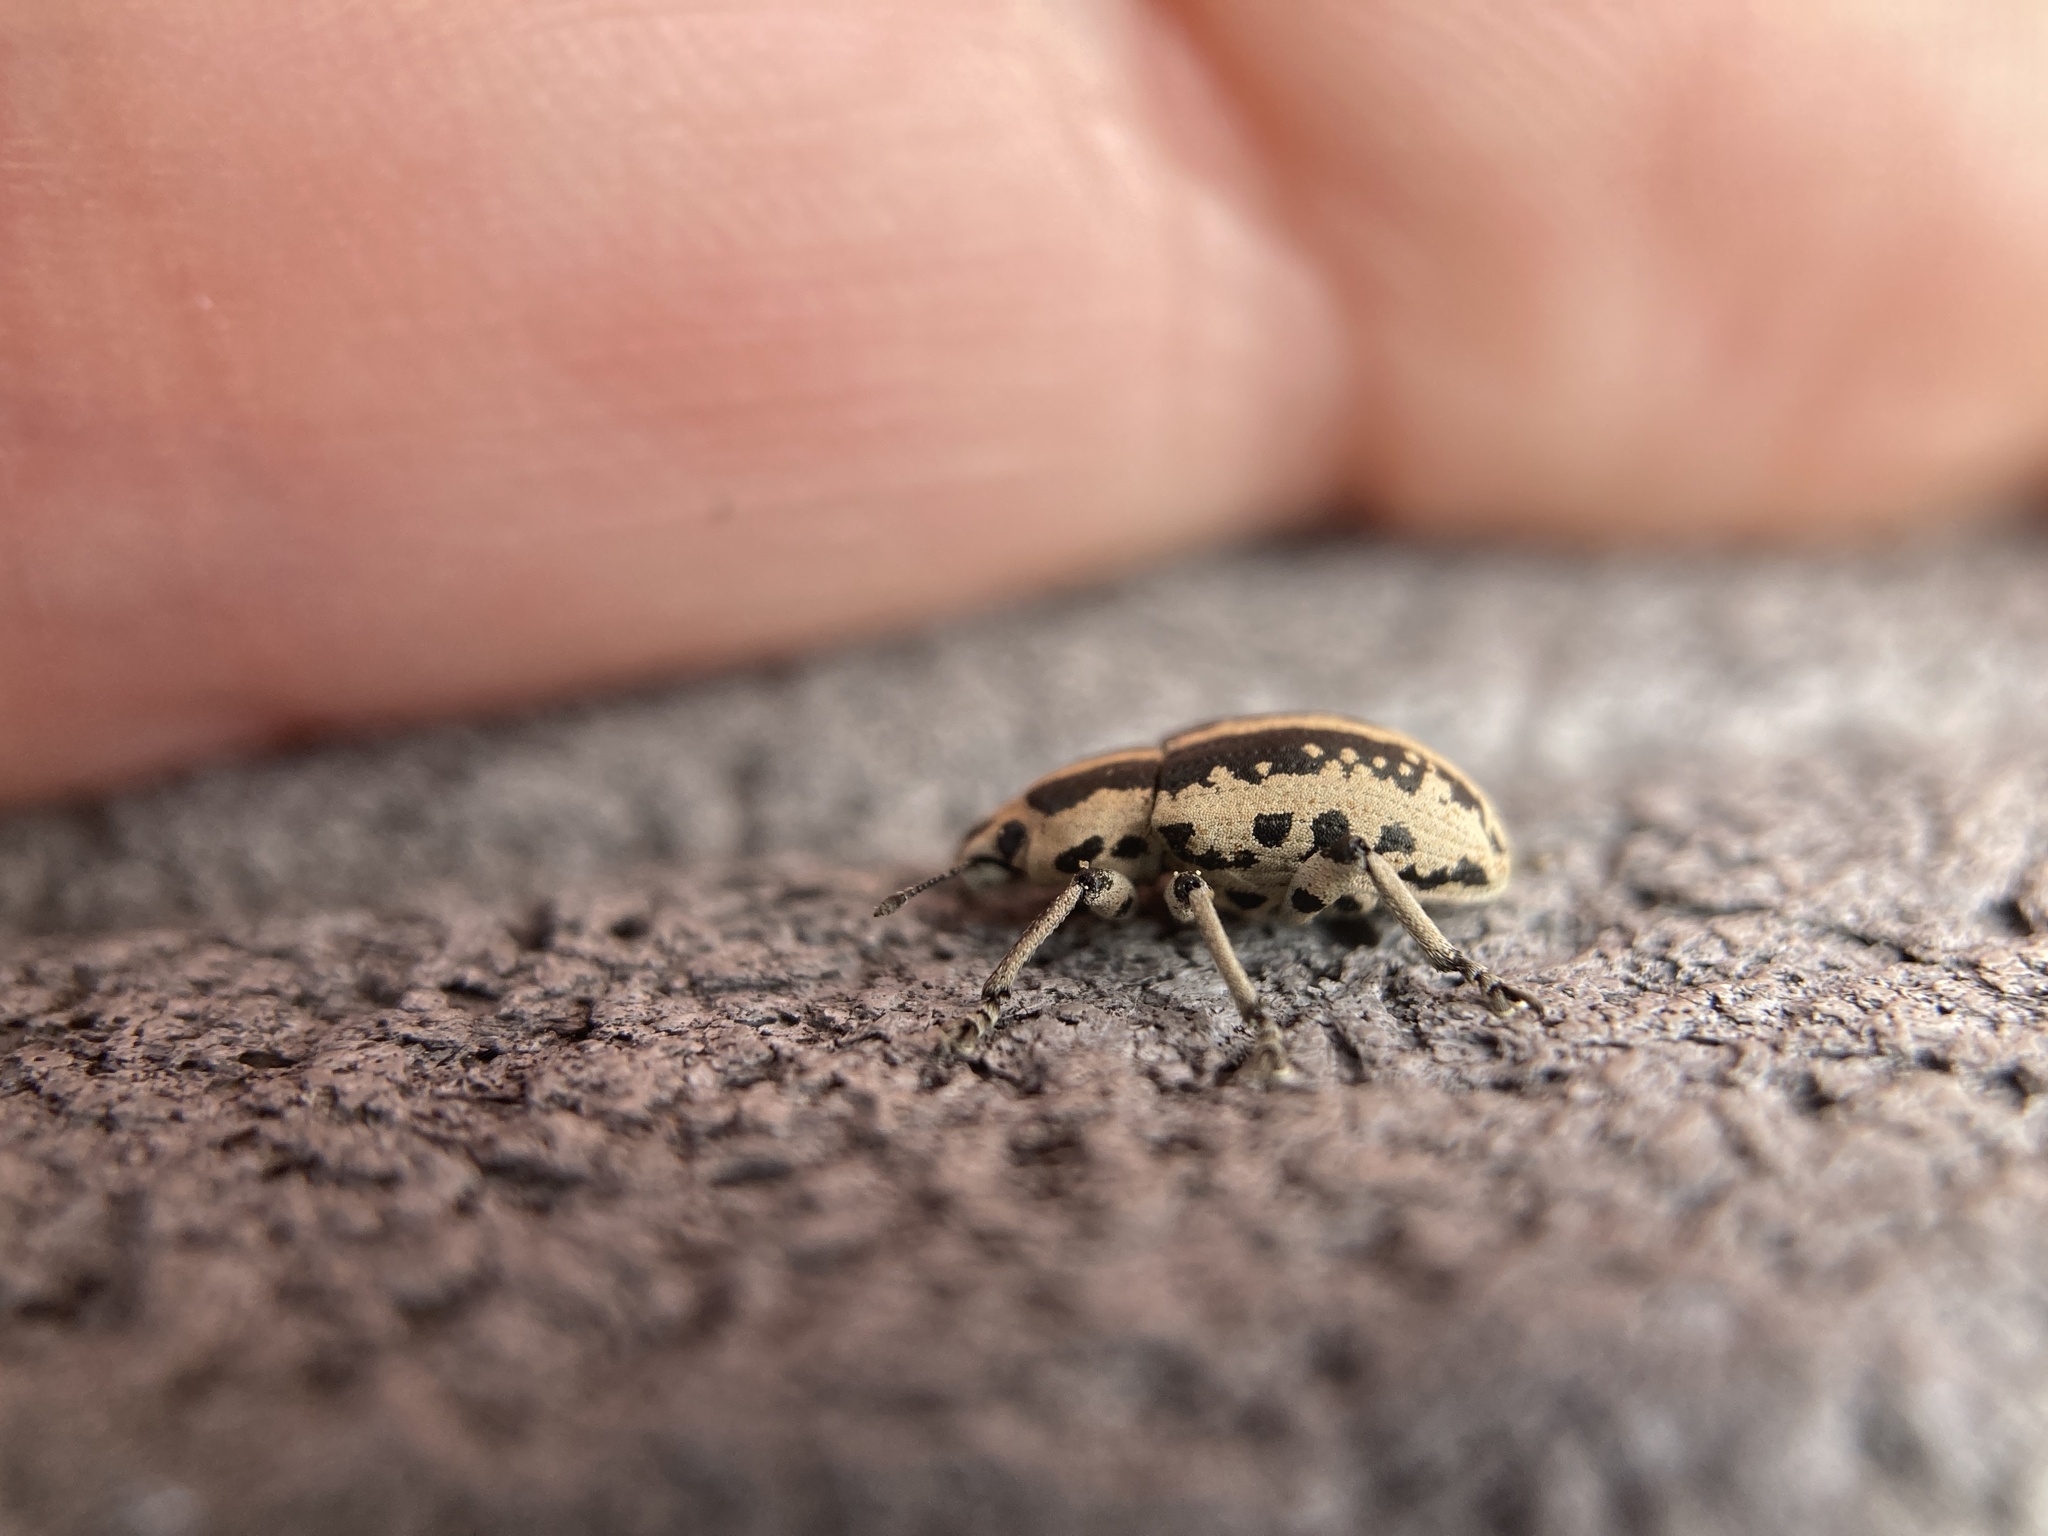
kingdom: Animalia
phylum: Arthropoda
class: Insecta
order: Coleoptera
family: Curculionidae
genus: Eudiagogus
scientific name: Eudiagogus rosenschoeldi
